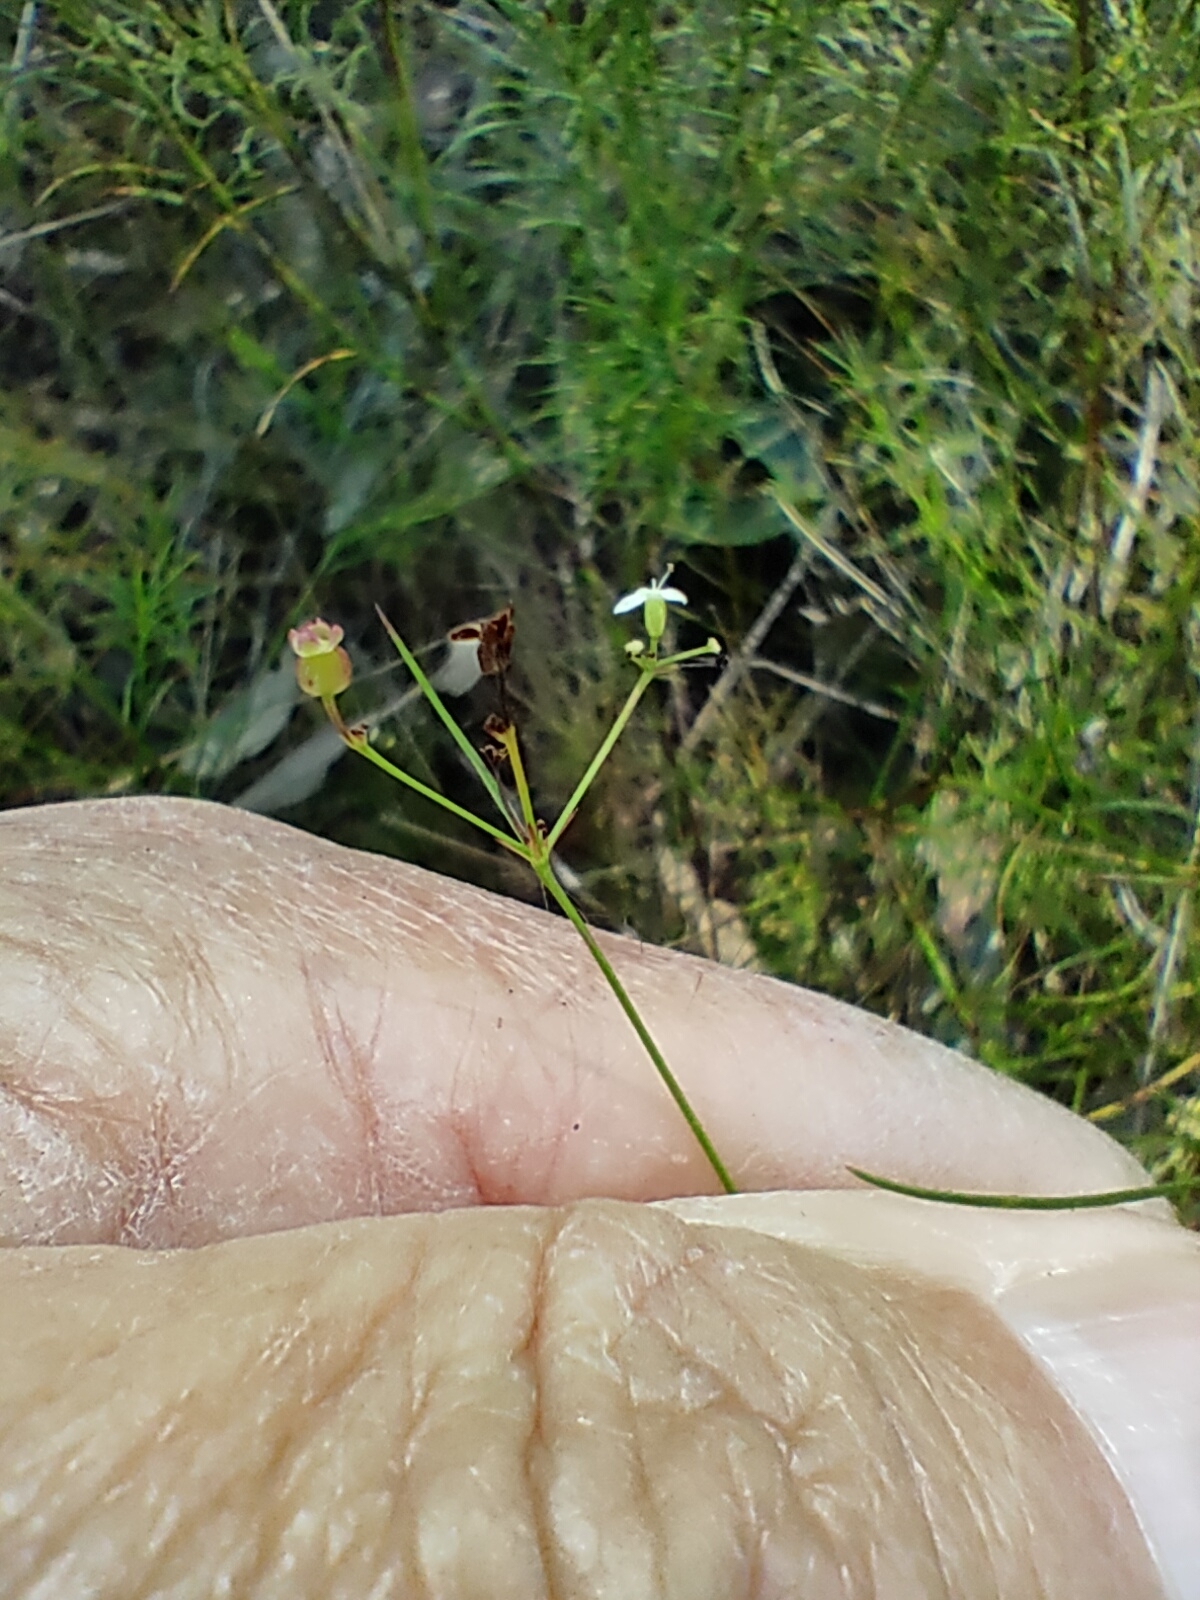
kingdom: Plantae
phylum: Tracheophyta
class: Magnoliopsida
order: Apiales
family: Apiaceae
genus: Platysace
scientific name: Platysace linearifolia
